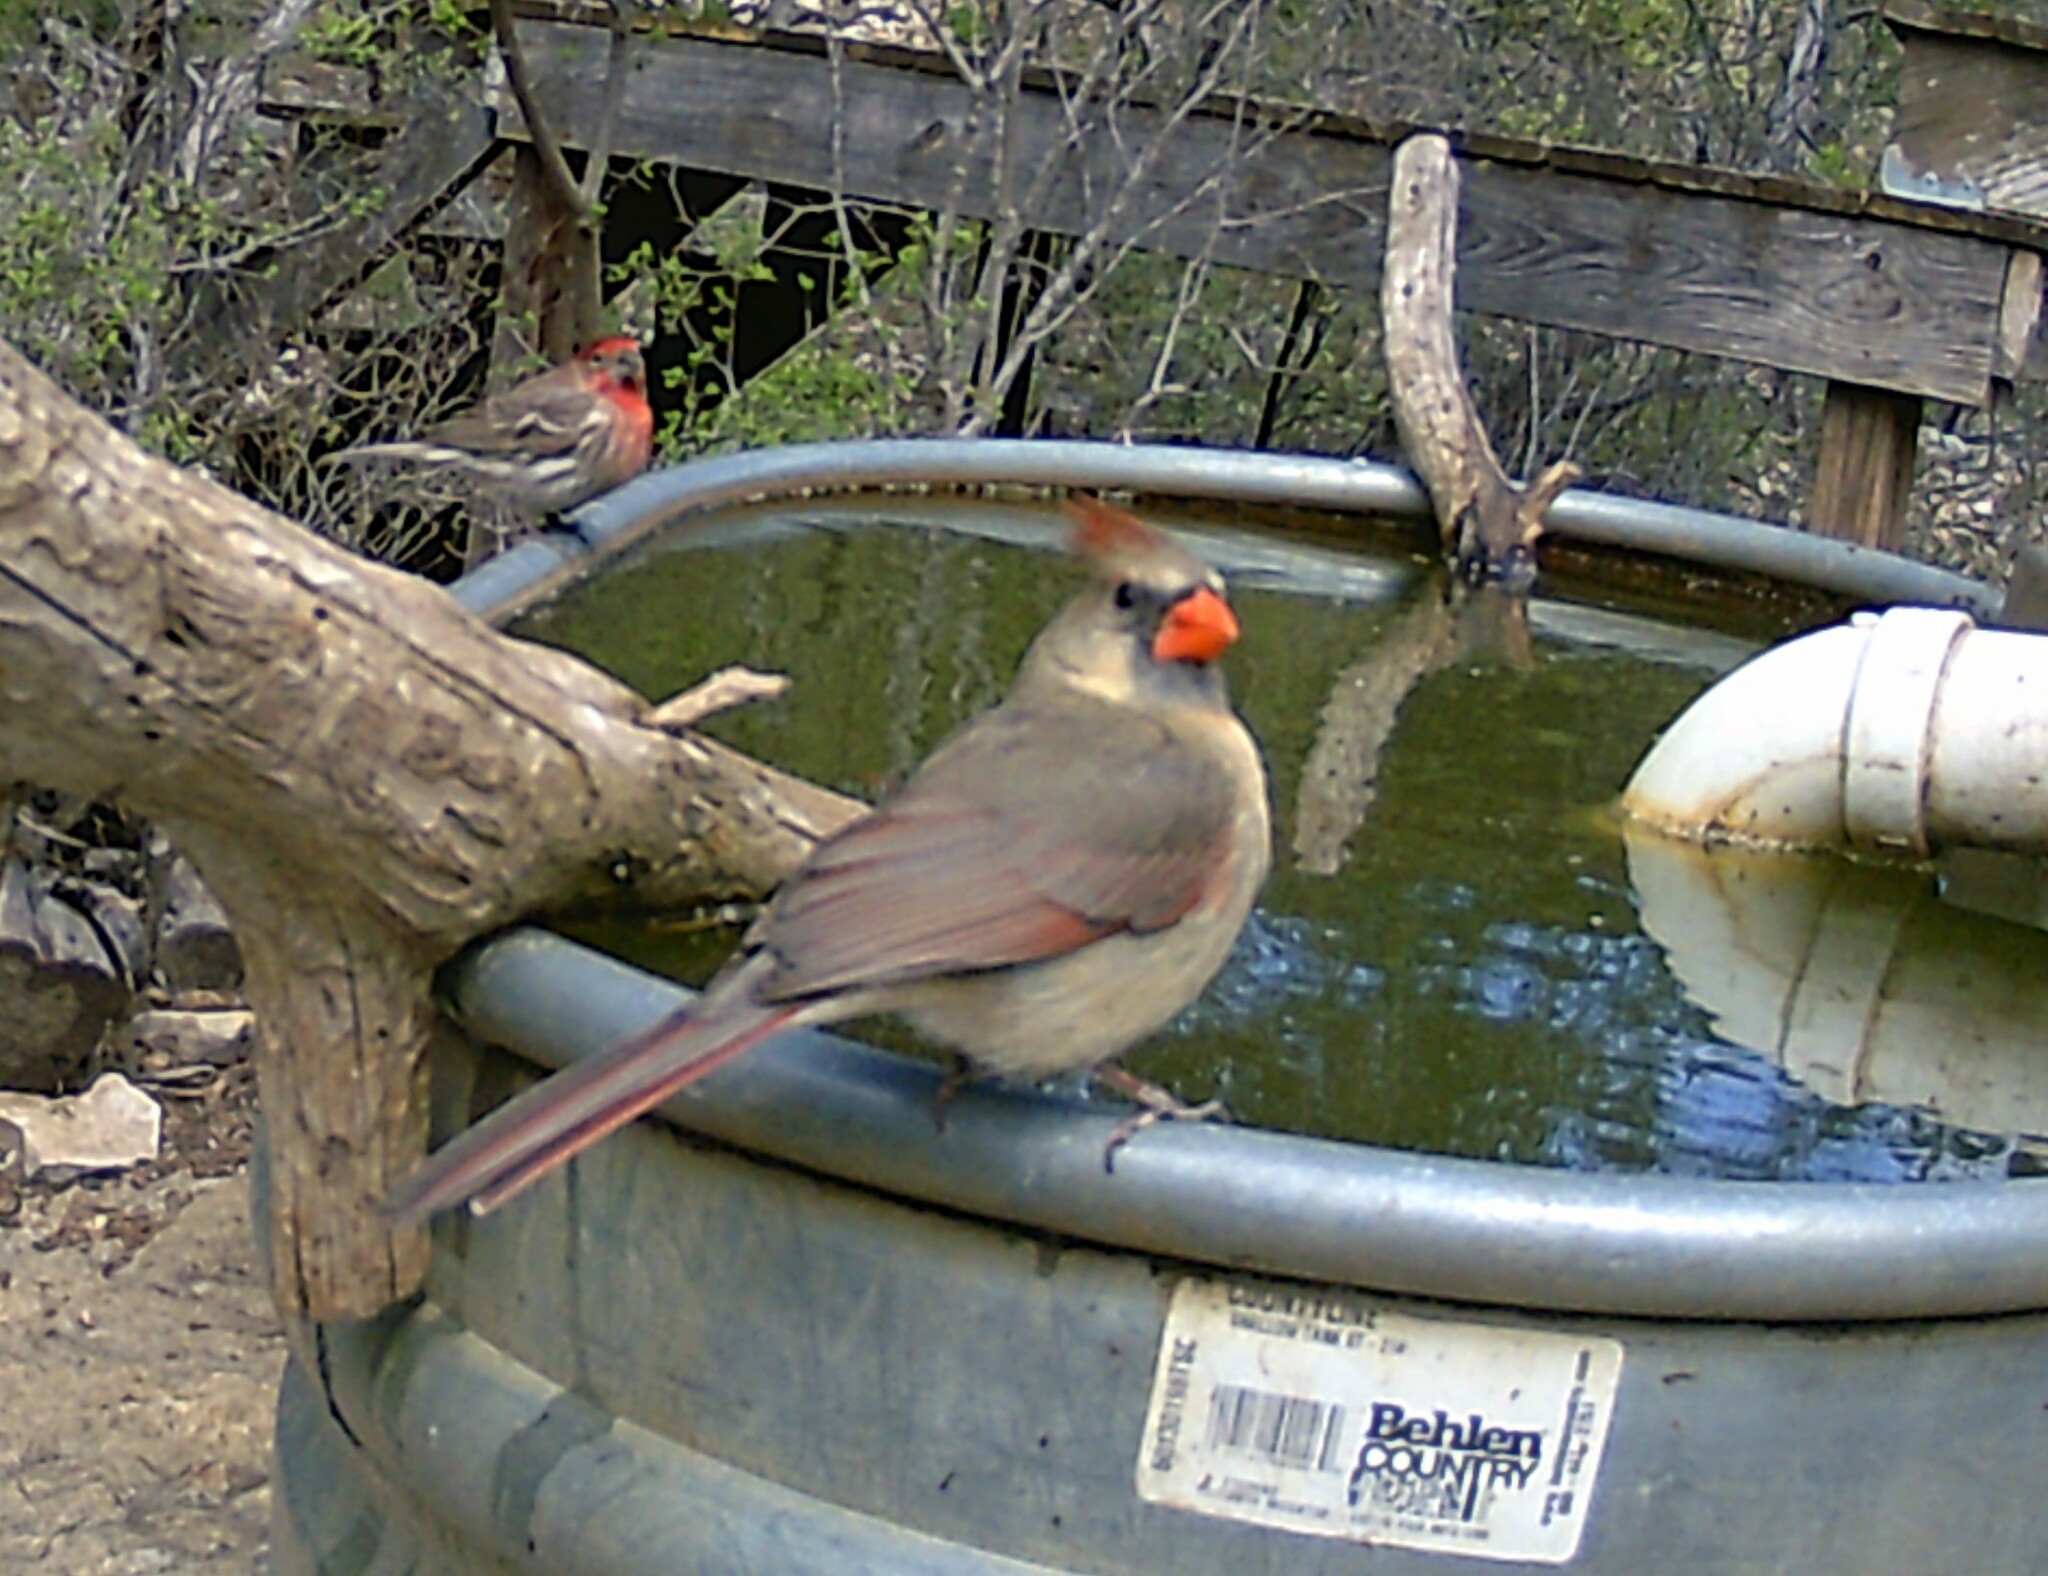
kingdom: Animalia
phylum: Chordata
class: Aves
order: Passeriformes
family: Cardinalidae
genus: Cardinalis
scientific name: Cardinalis cardinalis
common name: Northern cardinal
